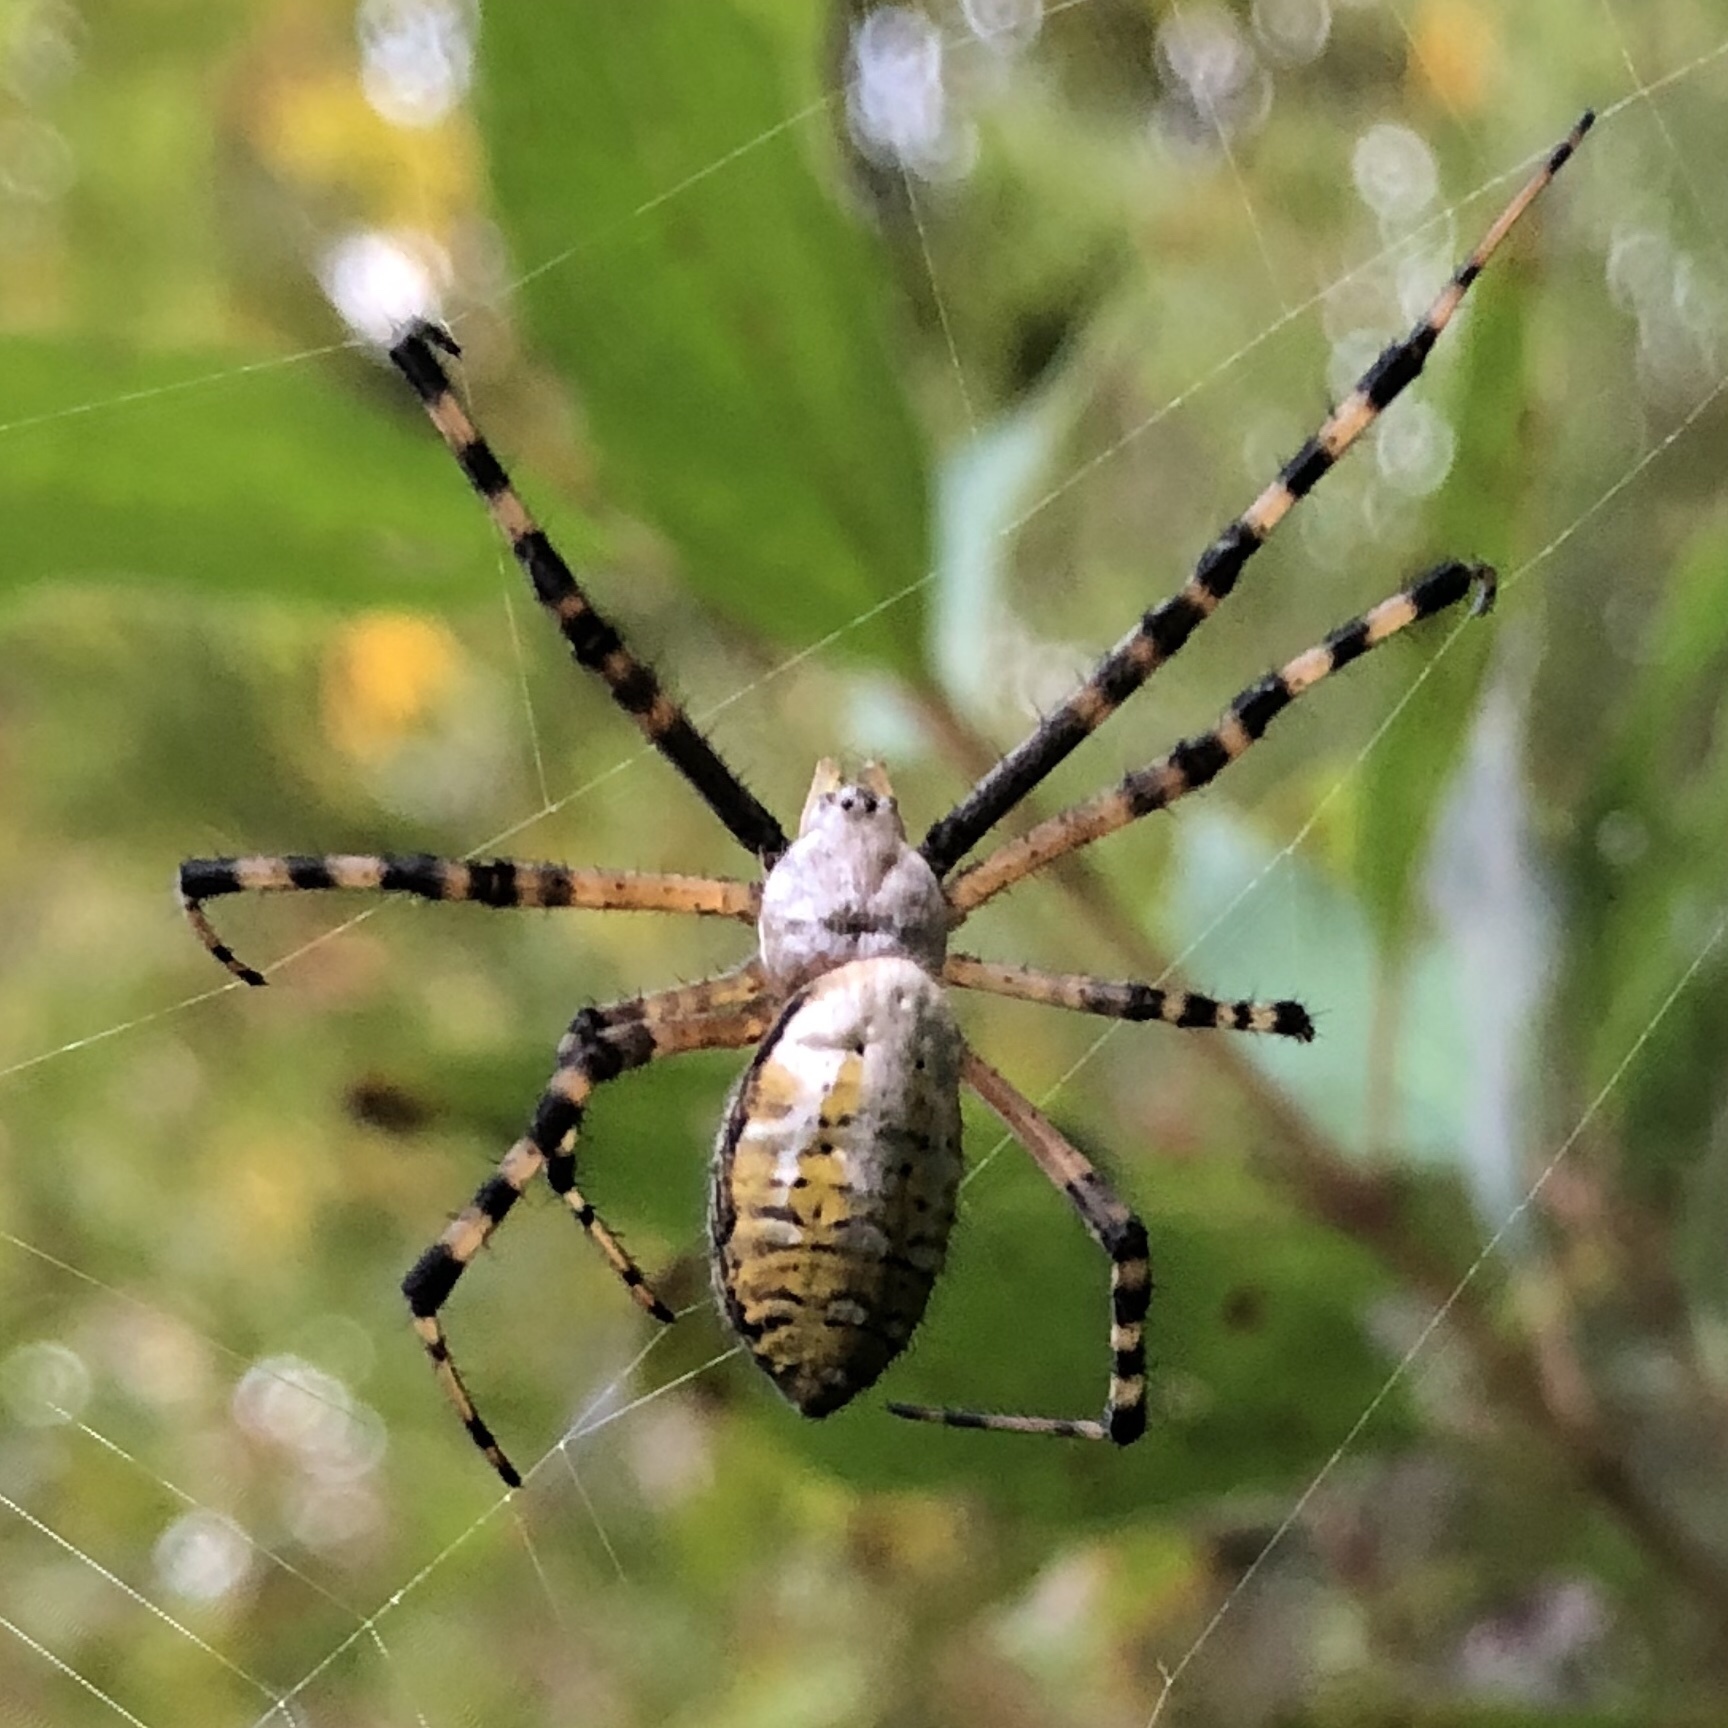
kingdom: Animalia
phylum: Arthropoda
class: Arachnida
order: Araneae
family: Araneidae
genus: Argiope
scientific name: Argiope trifasciata
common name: Banded garden spider
